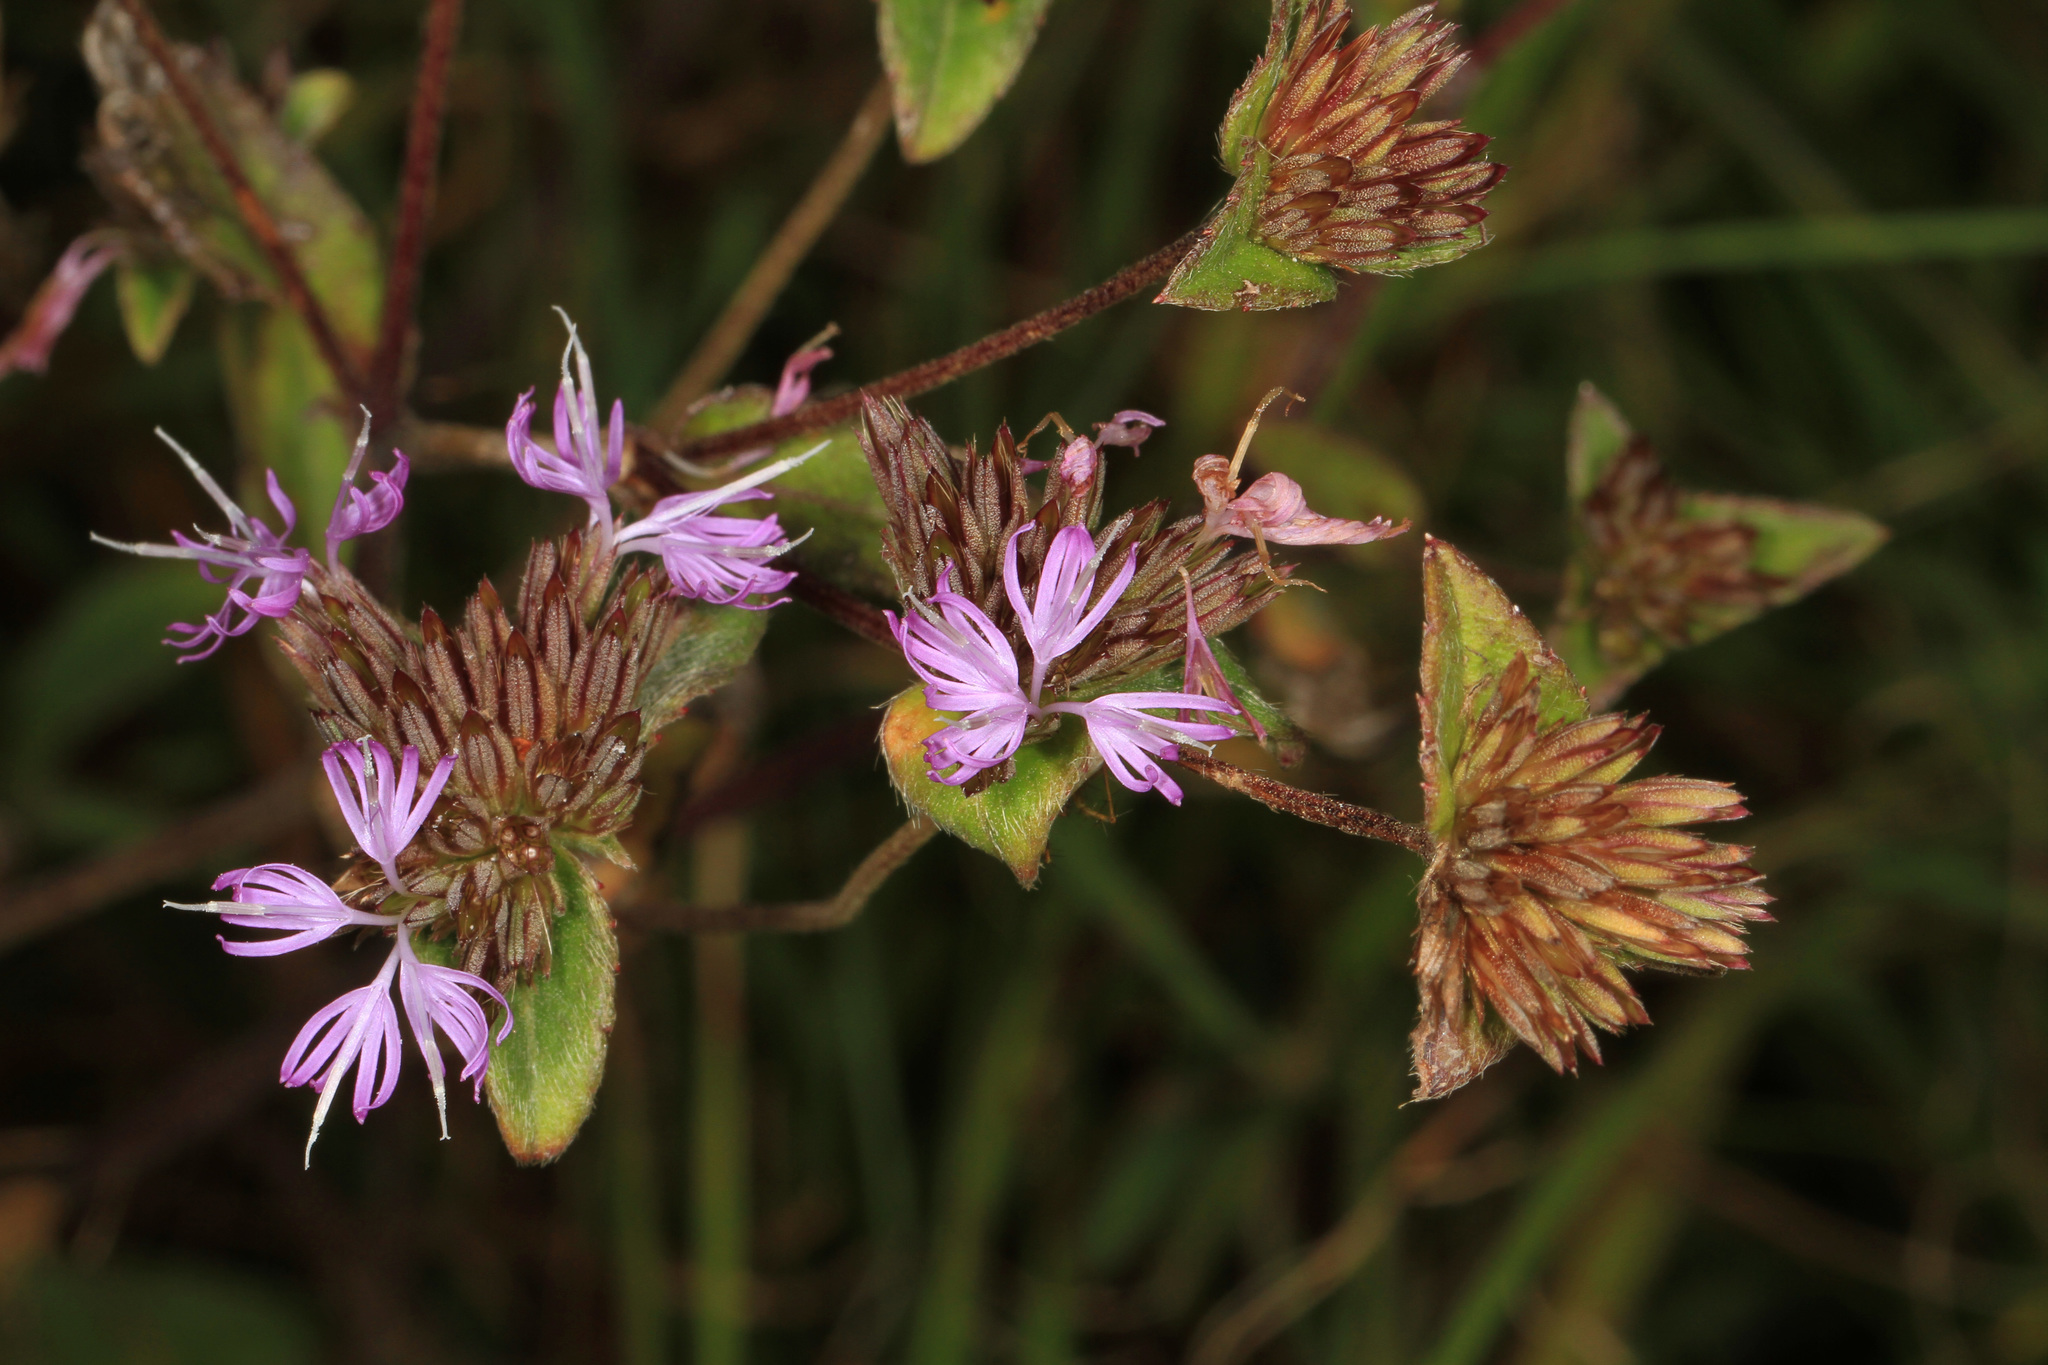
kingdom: Plantae
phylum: Tracheophyta
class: Magnoliopsida
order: Asterales
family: Asteraceae
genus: Elephantopus
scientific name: Elephantopus tomentosus
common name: Tobacco-weed
